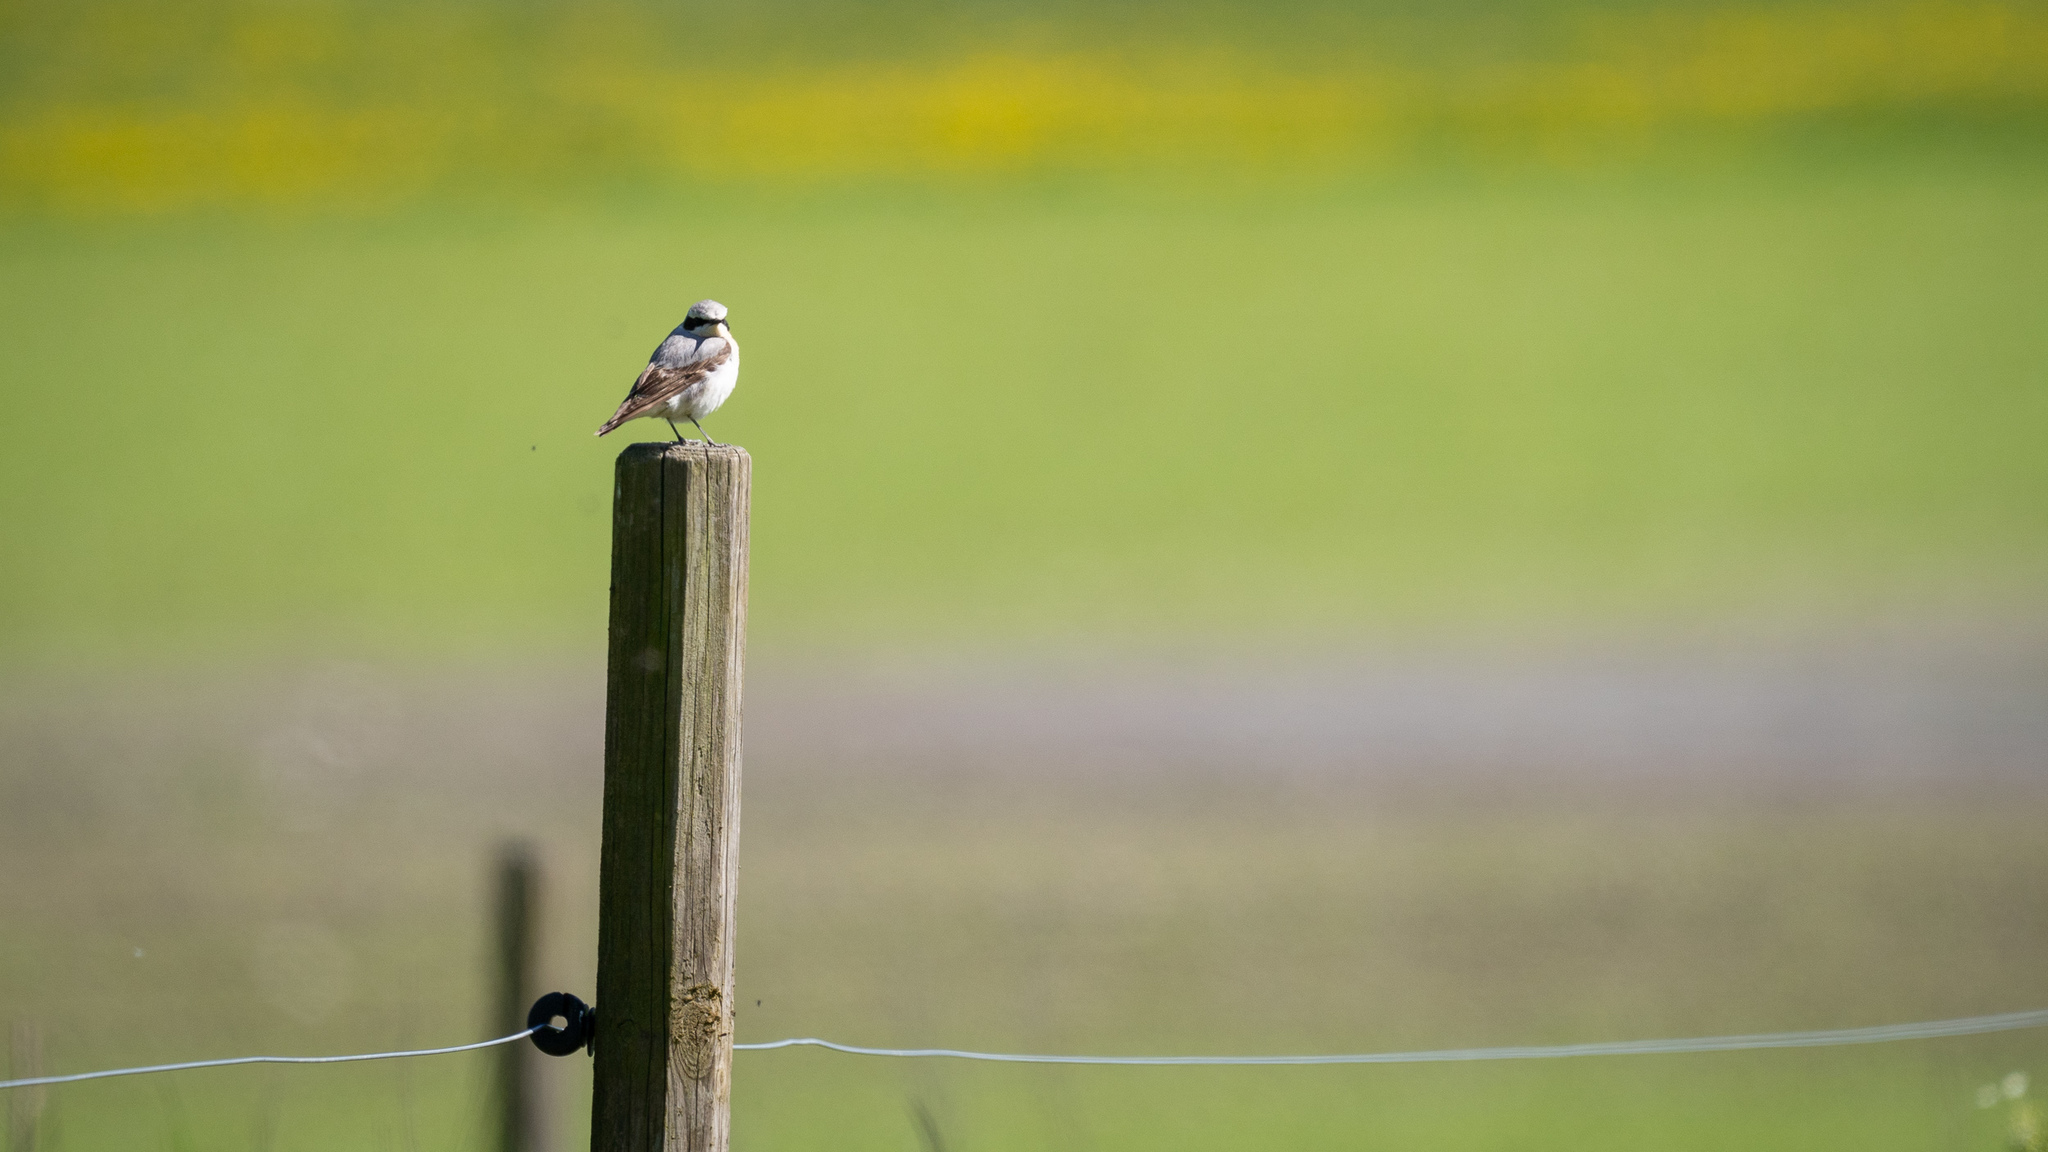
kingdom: Animalia
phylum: Chordata
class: Aves
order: Passeriformes
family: Muscicapidae
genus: Oenanthe
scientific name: Oenanthe oenanthe
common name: Northern wheatear
